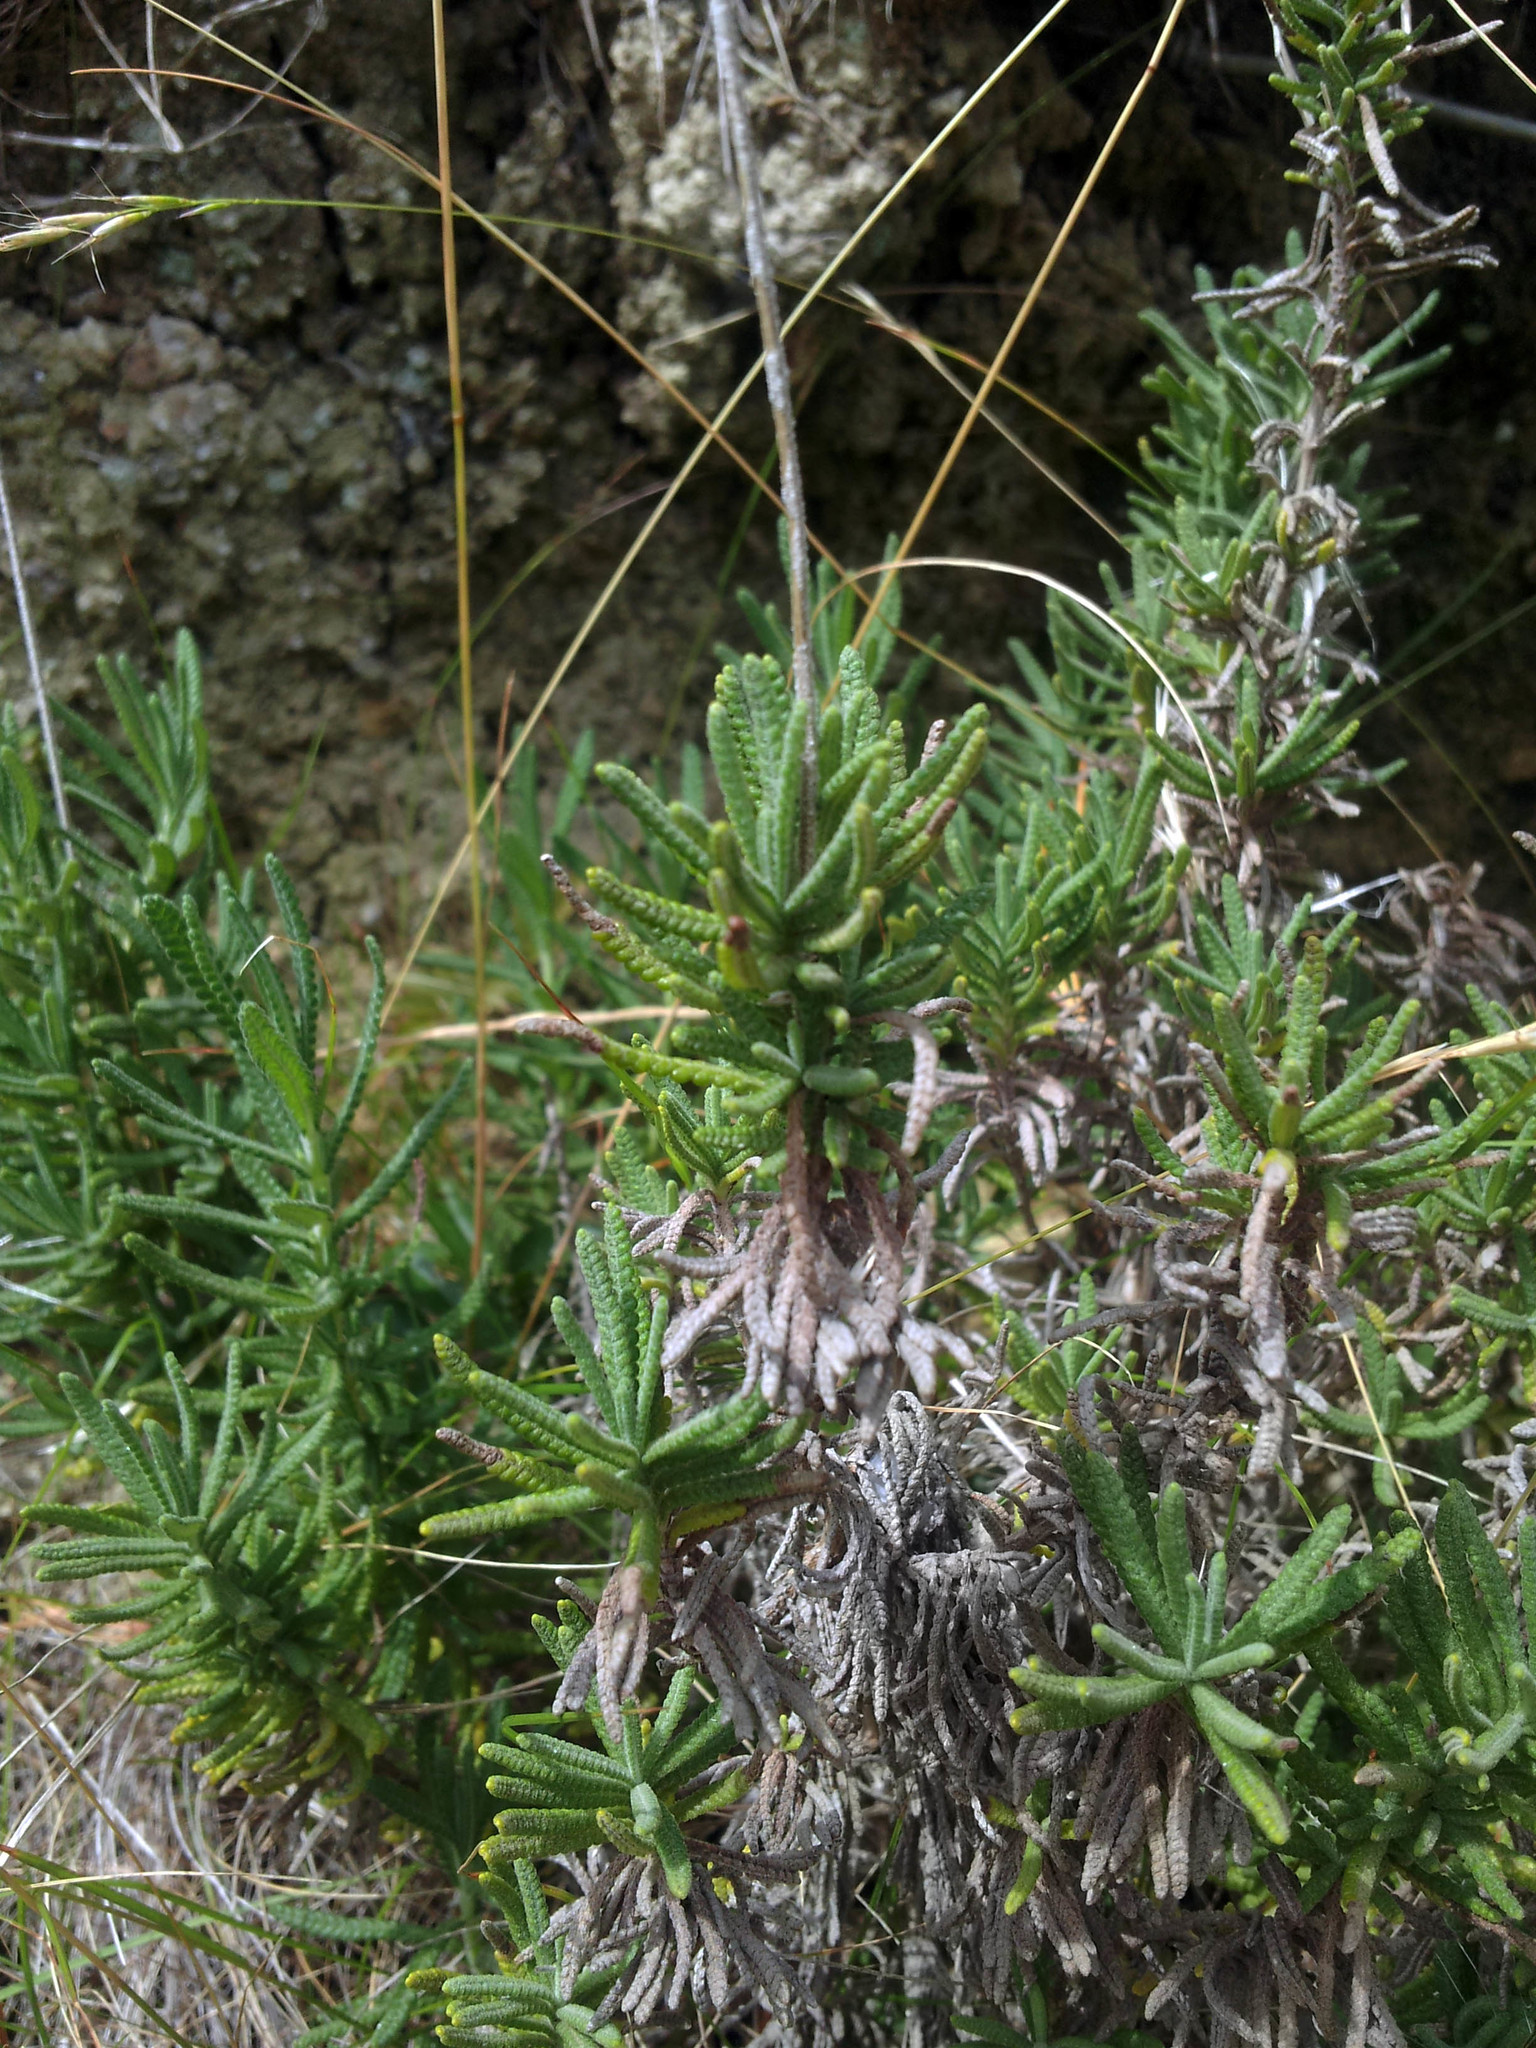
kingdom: Plantae
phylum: Tracheophyta
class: Magnoliopsida
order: Lamiales
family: Lamiaceae
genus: Lavandula
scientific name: Lavandula dentata
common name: French lavender
